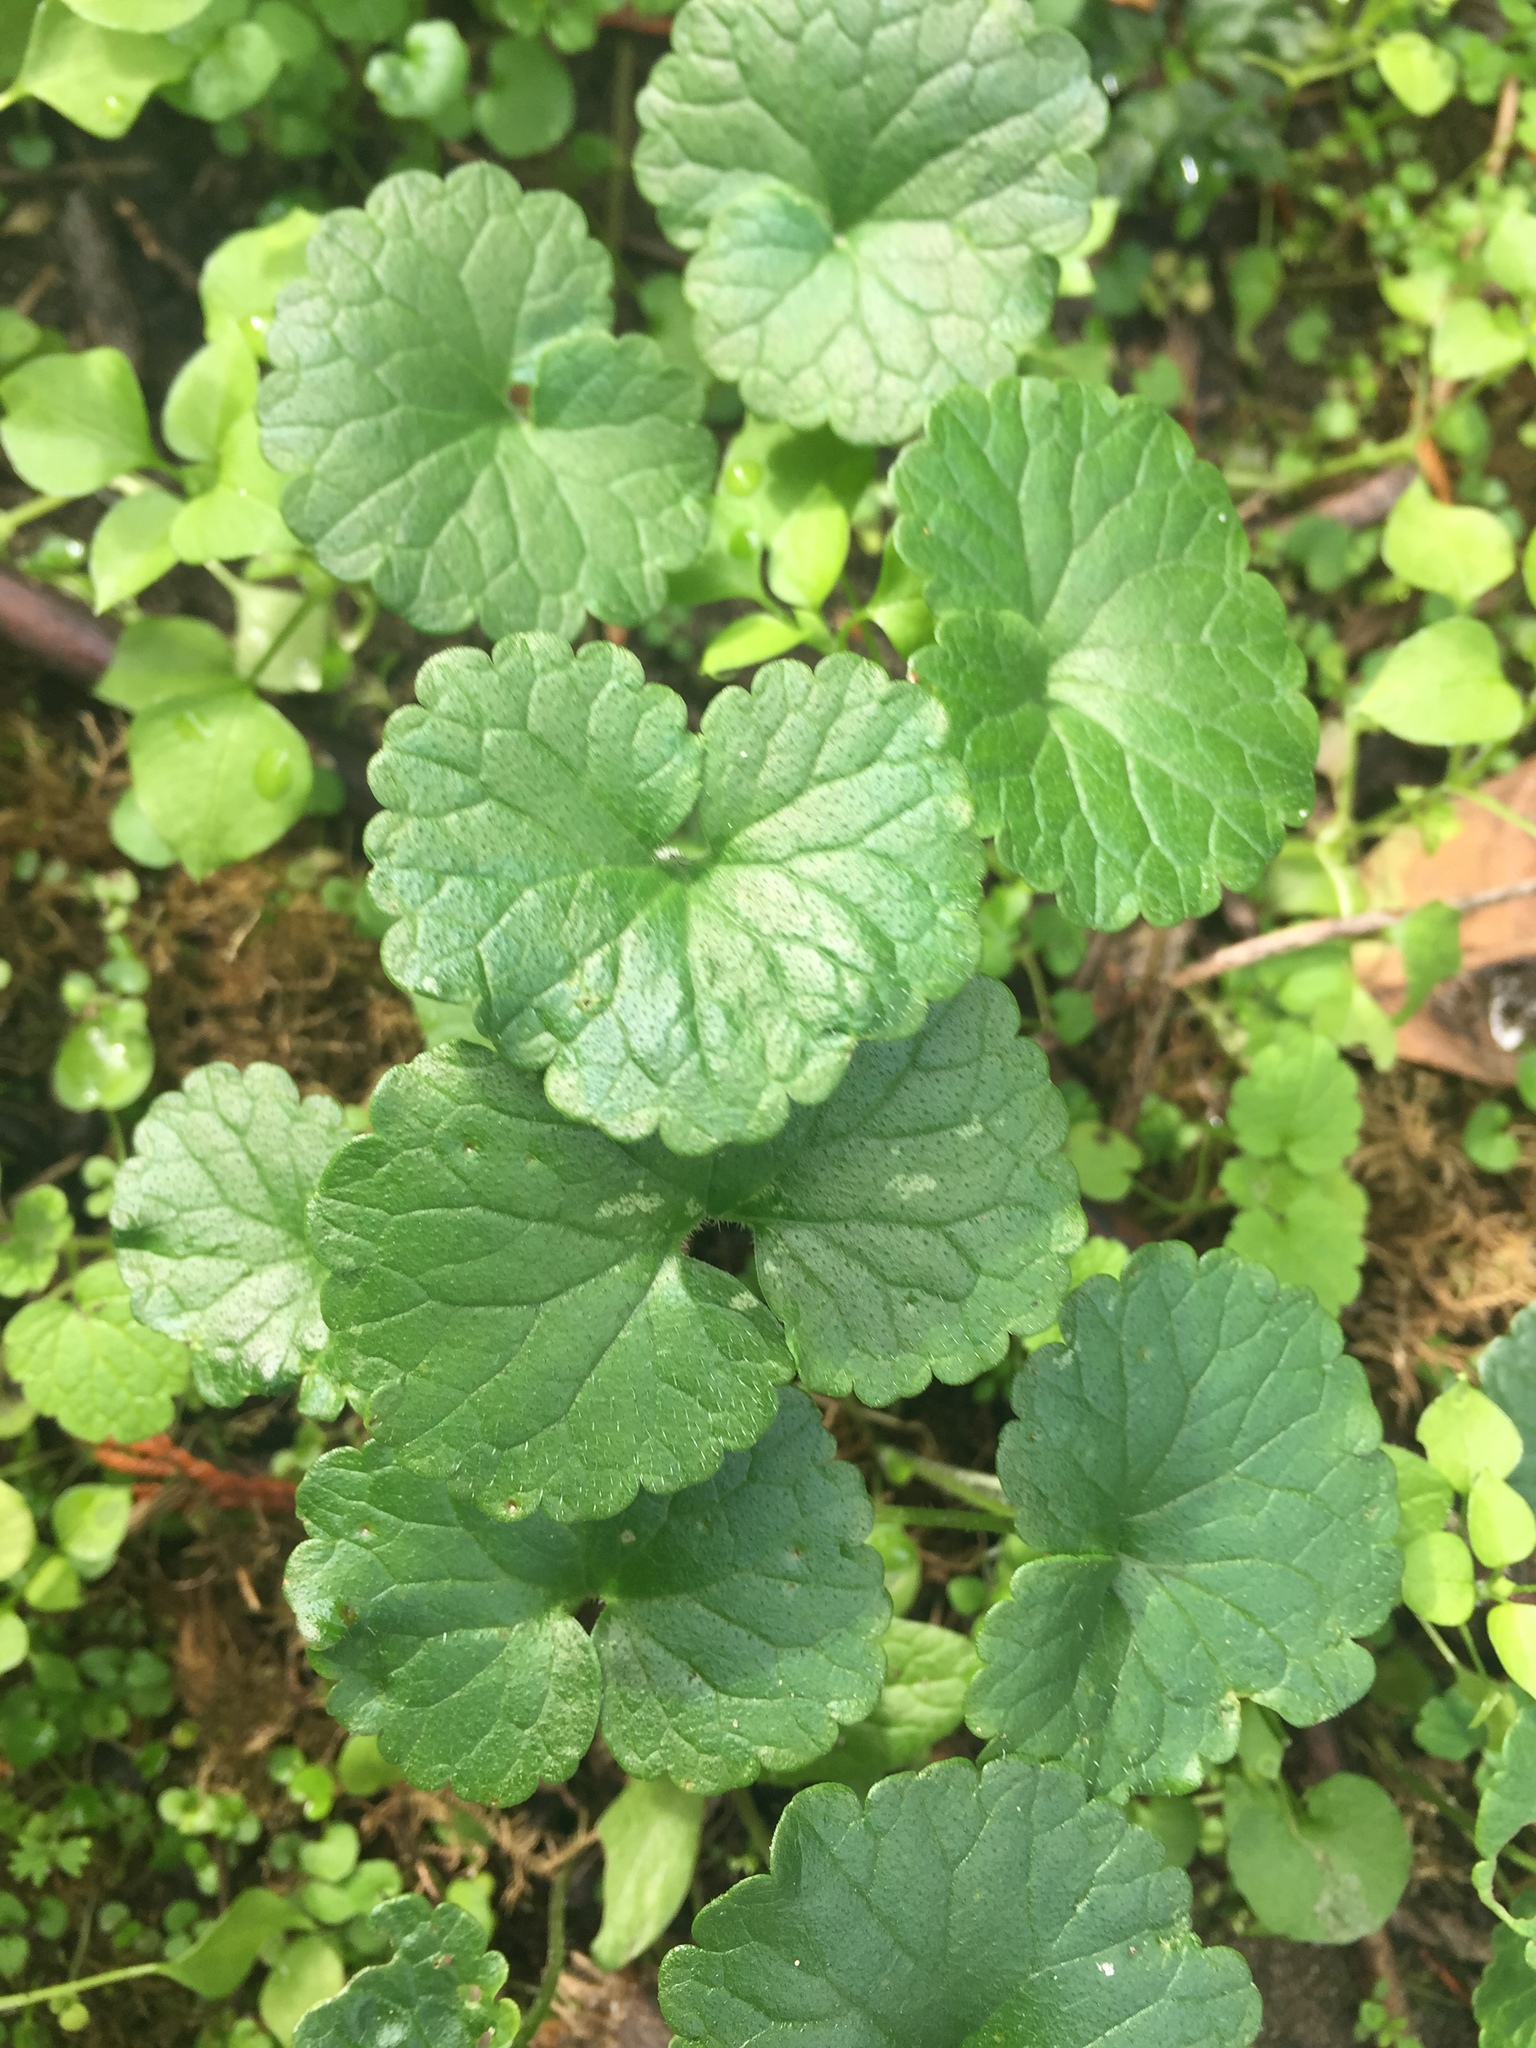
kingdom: Plantae
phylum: Tracheophyta
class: Magnoliopsida
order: Lamiales
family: Lamiaceae
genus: Glechoma
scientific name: Glechoma hederacea
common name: Ground ivy
